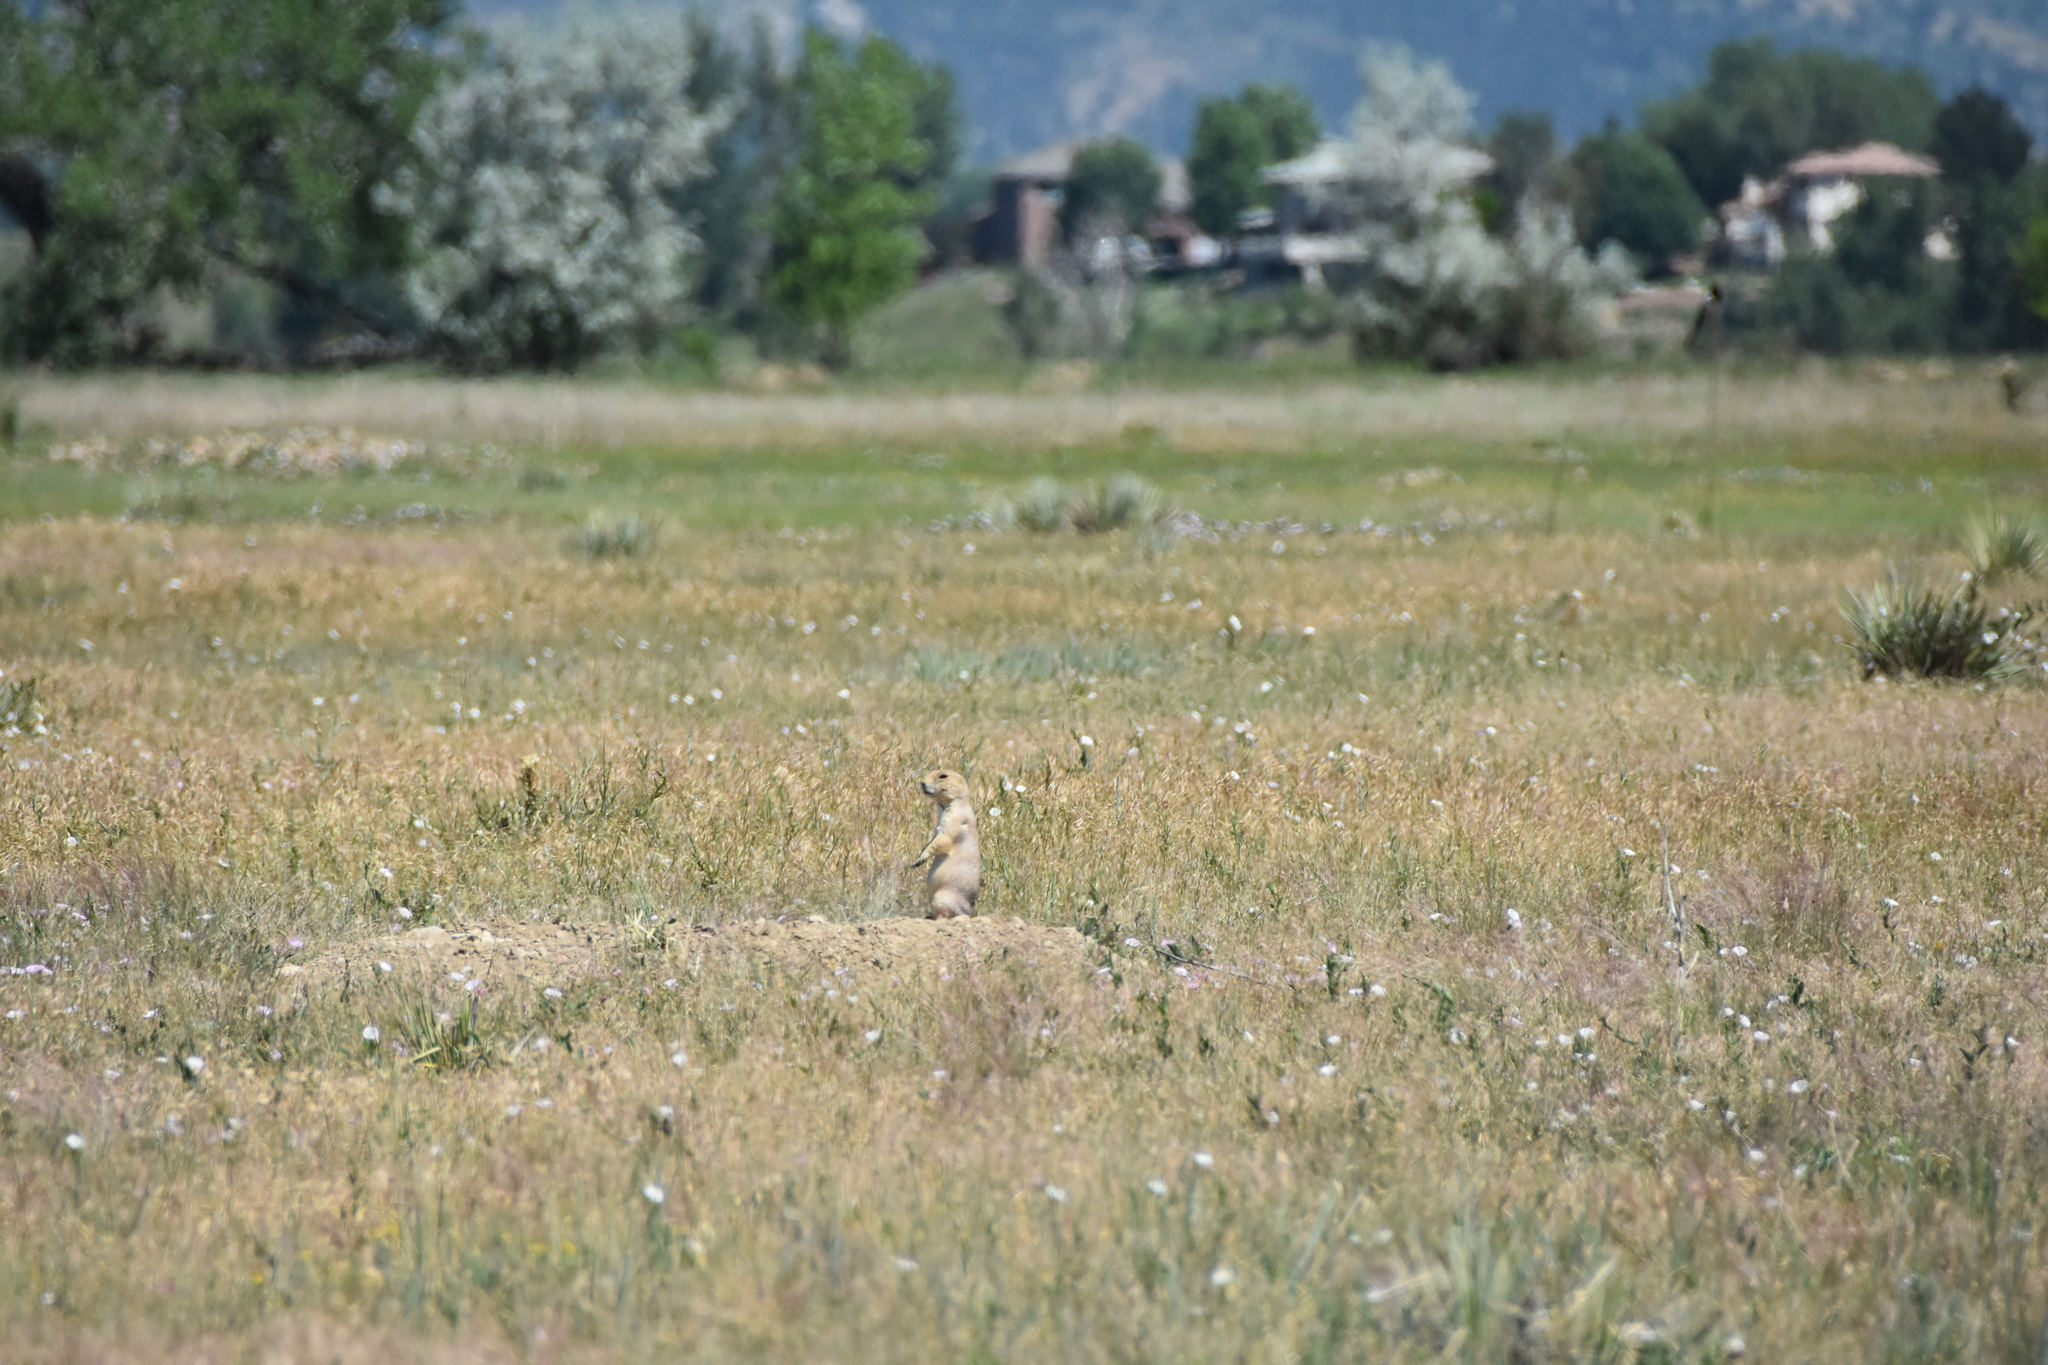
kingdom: Animalia
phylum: Chordata
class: Mammalia
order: Rodentia
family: Sciuridae
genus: Cynomys
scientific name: Cynomys ludovicianus
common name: Black-tailed prairie dog
